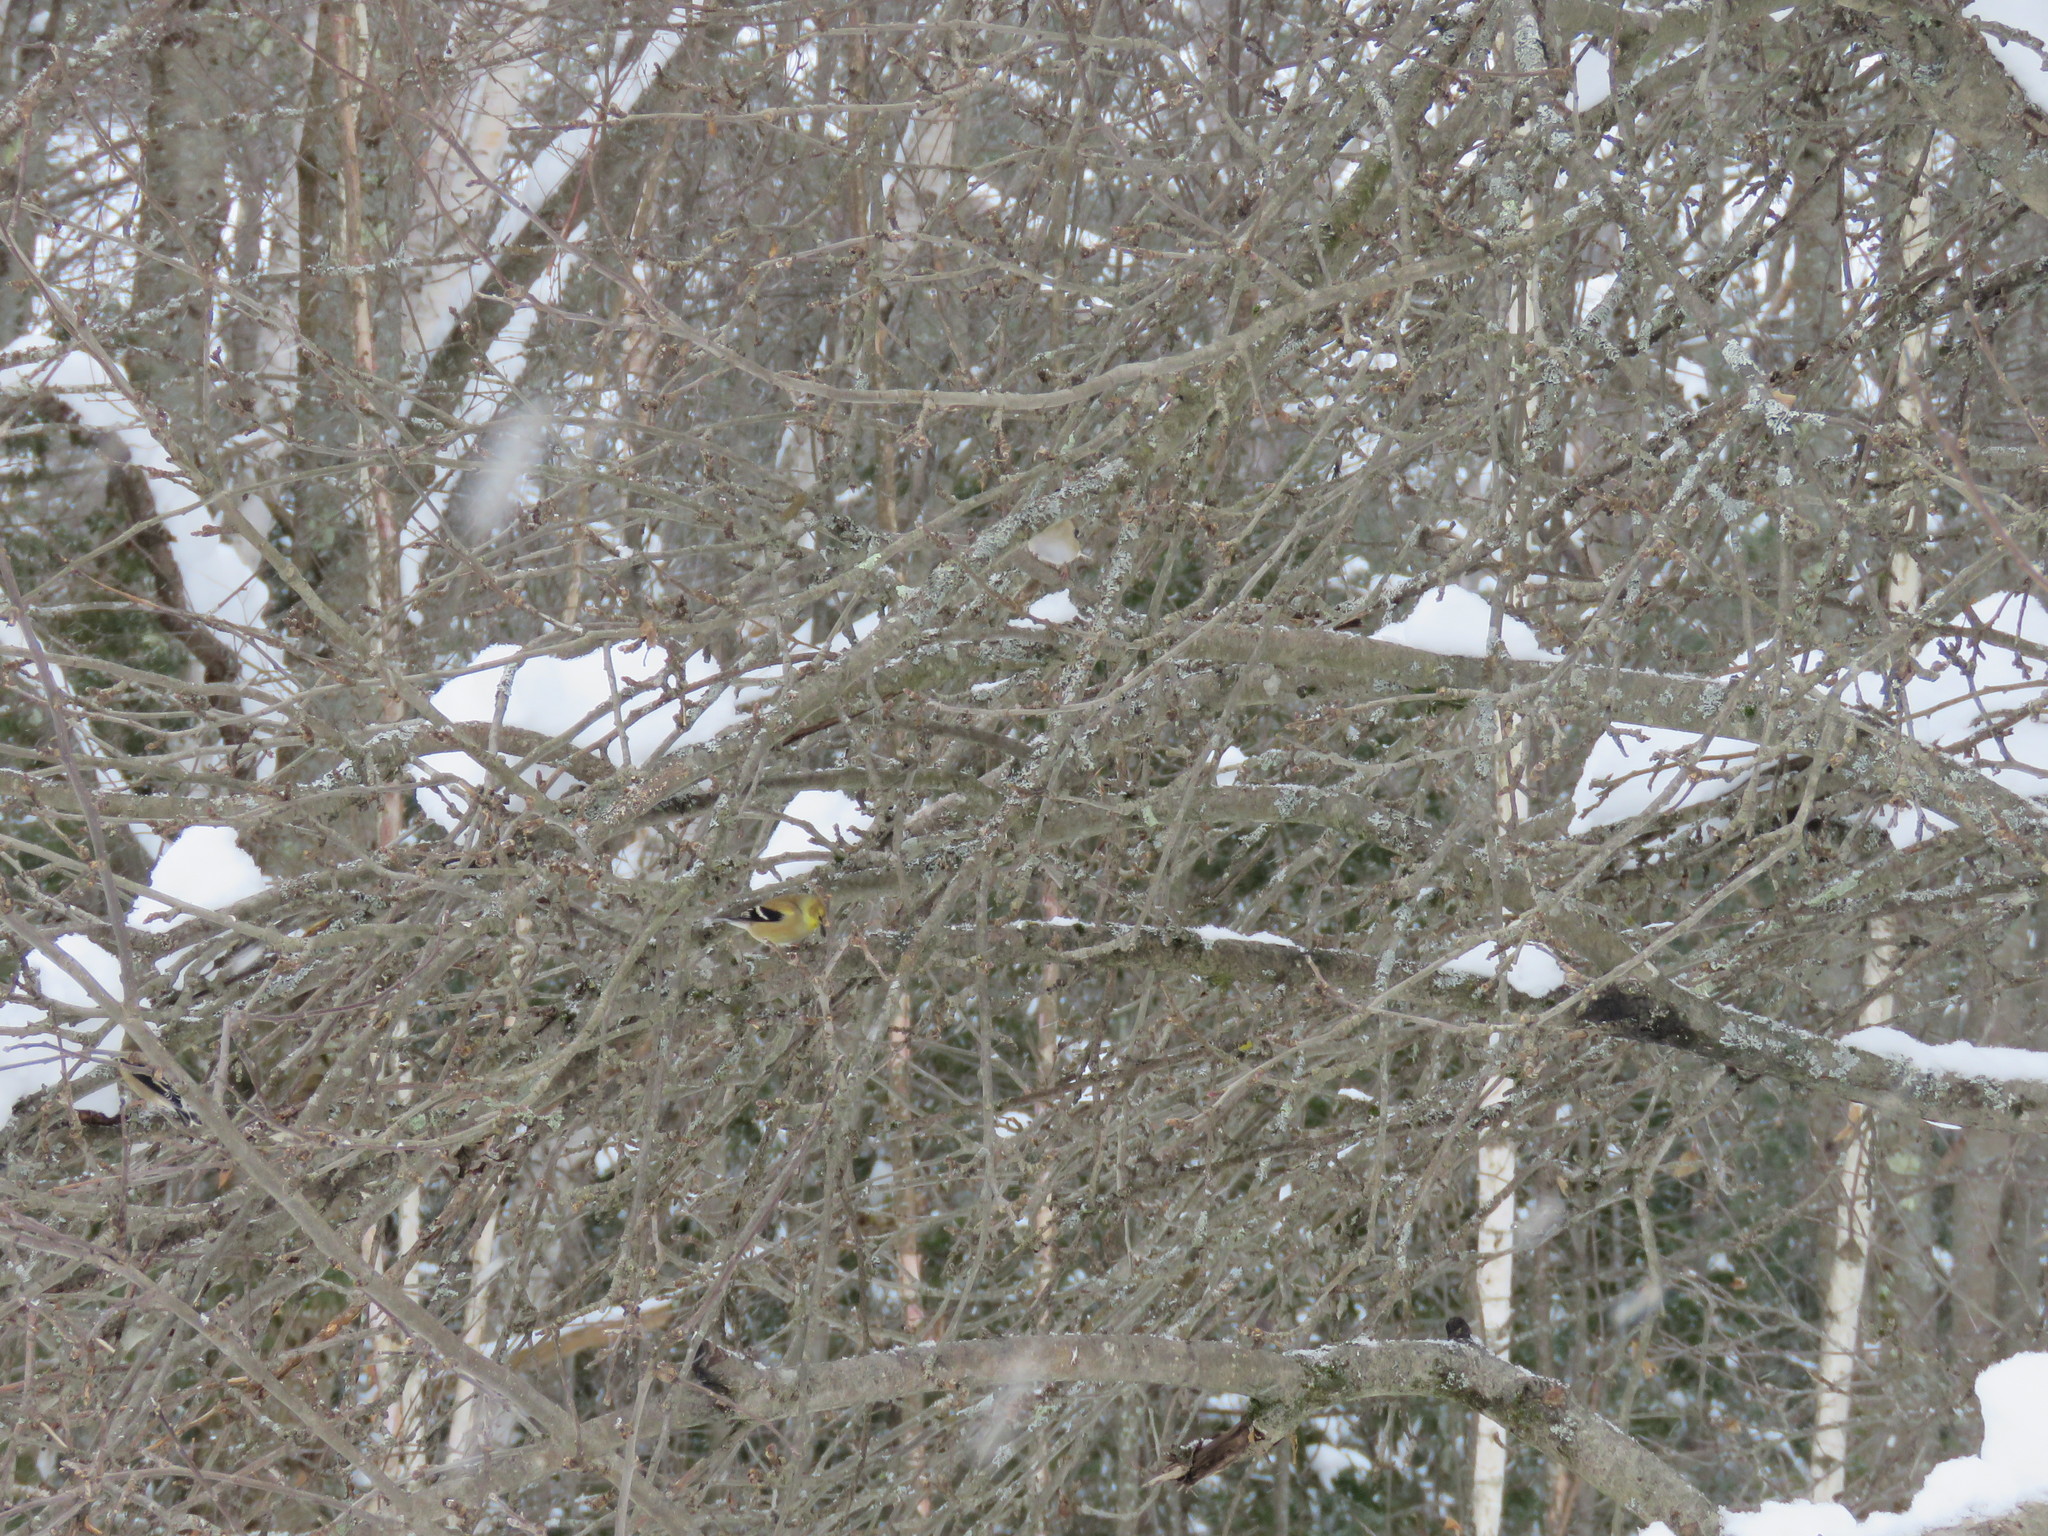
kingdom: Animalia
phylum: Chordata
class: Aves
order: Passeriformes
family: Fringillidae
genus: Spinus
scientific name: Spinus tristis
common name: American goldfinch
